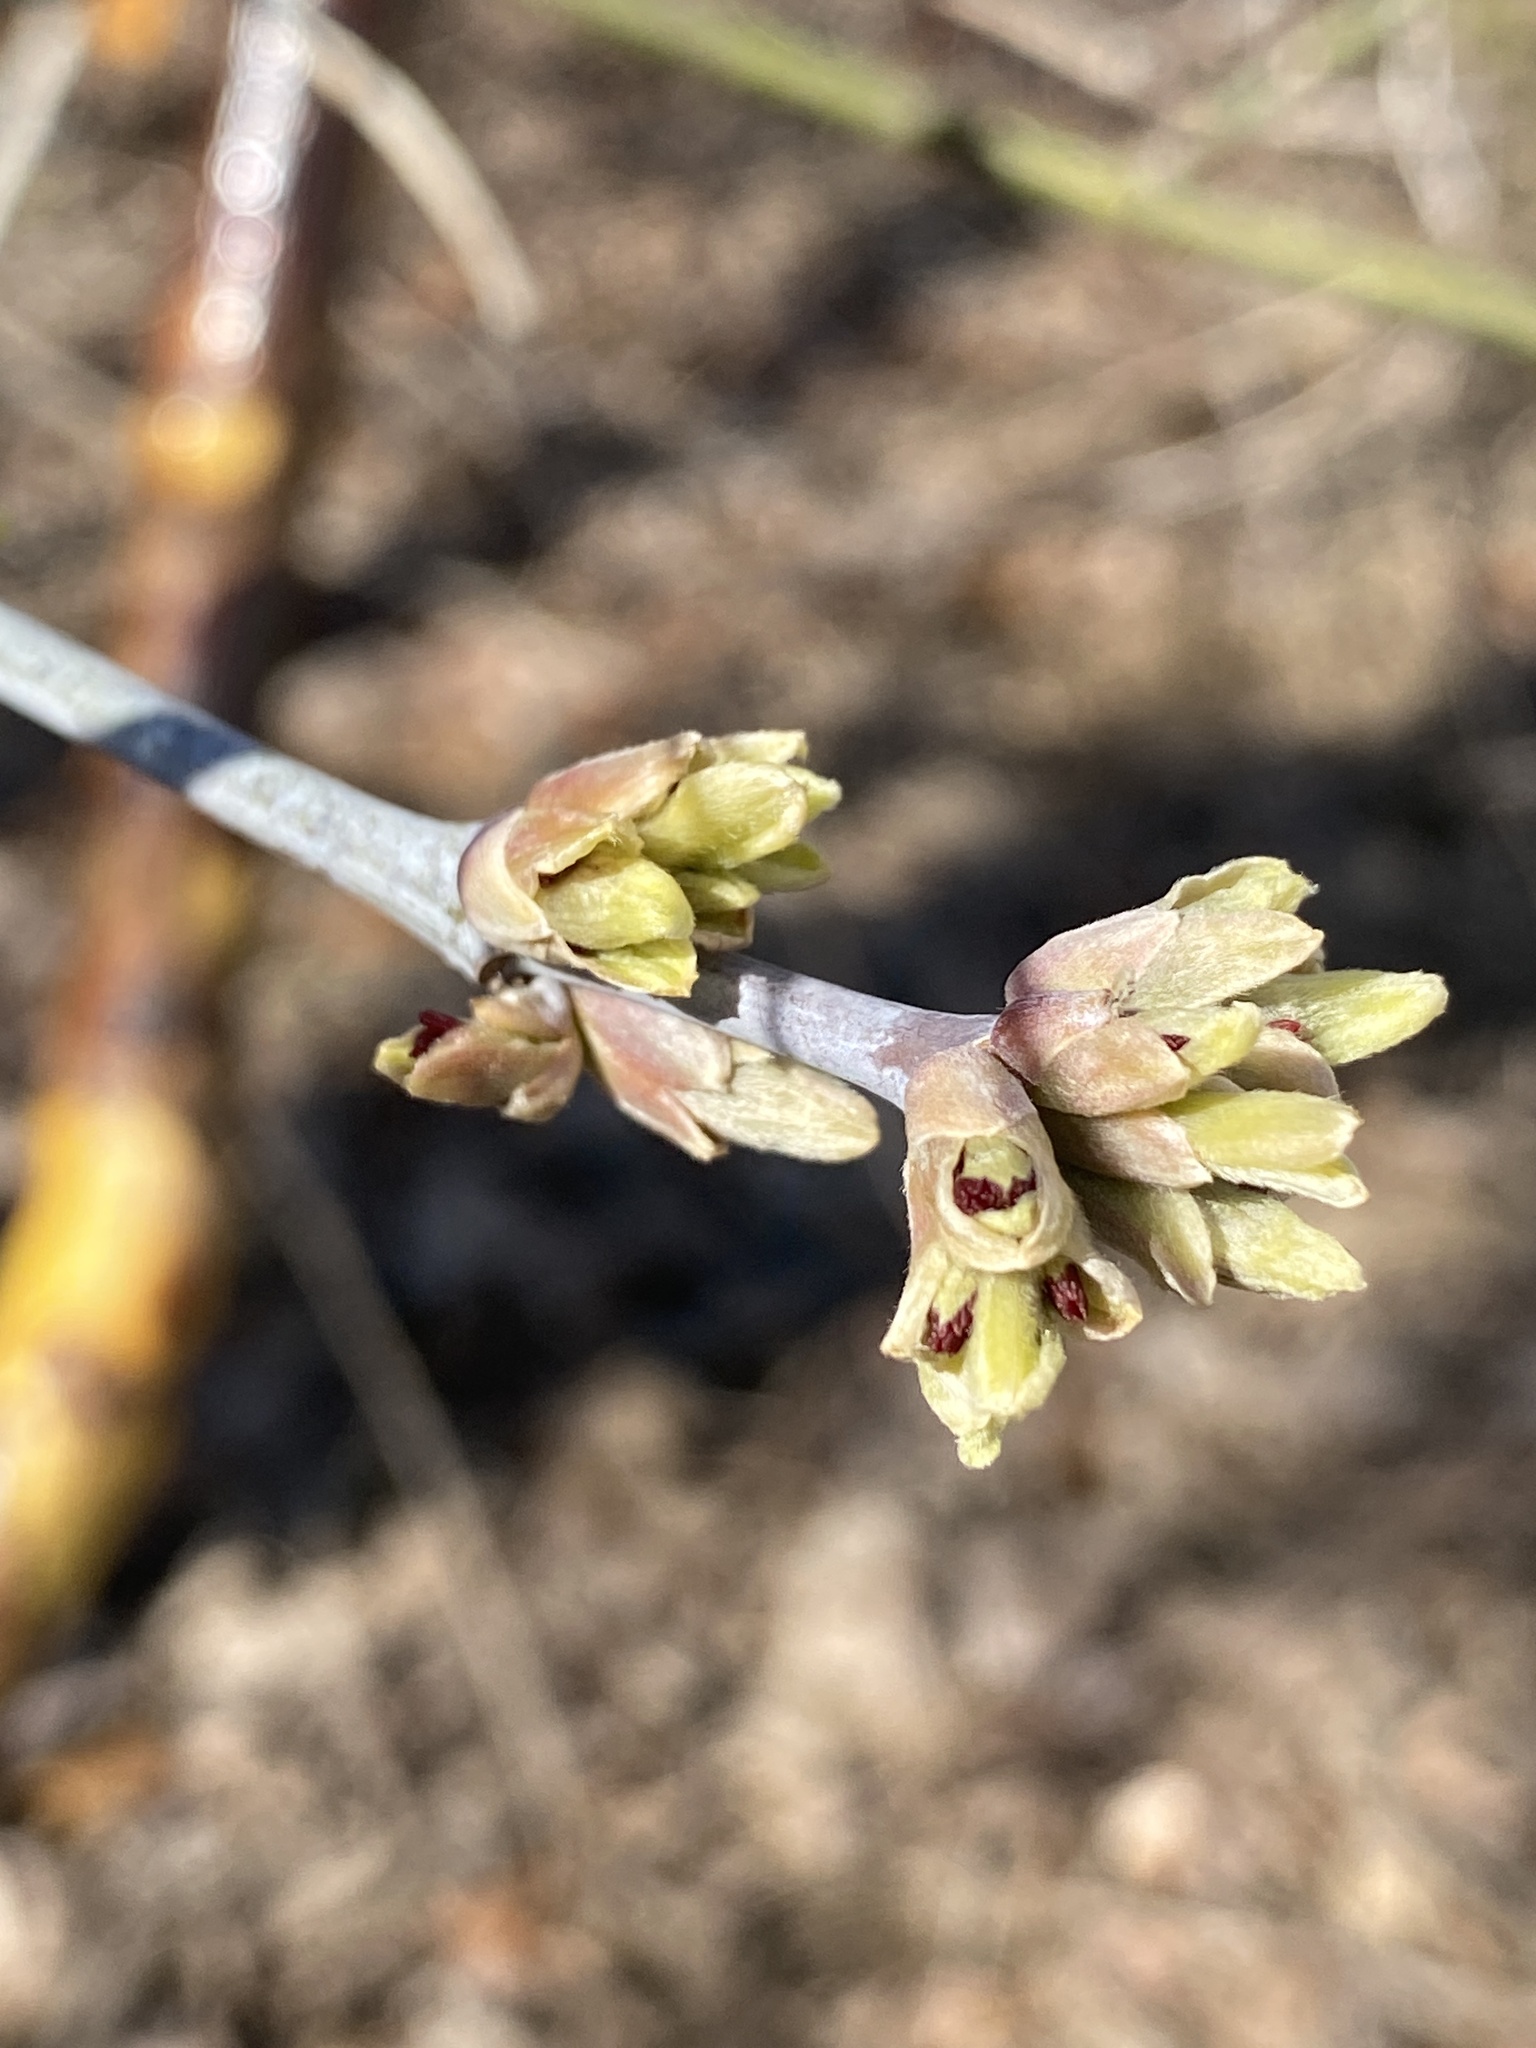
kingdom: Plantae
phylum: Tracheophyta
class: Magnoliopsida
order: Sapindales
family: Sapindaceae
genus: Acer
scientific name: Acer negundo
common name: Ashleaf maple
